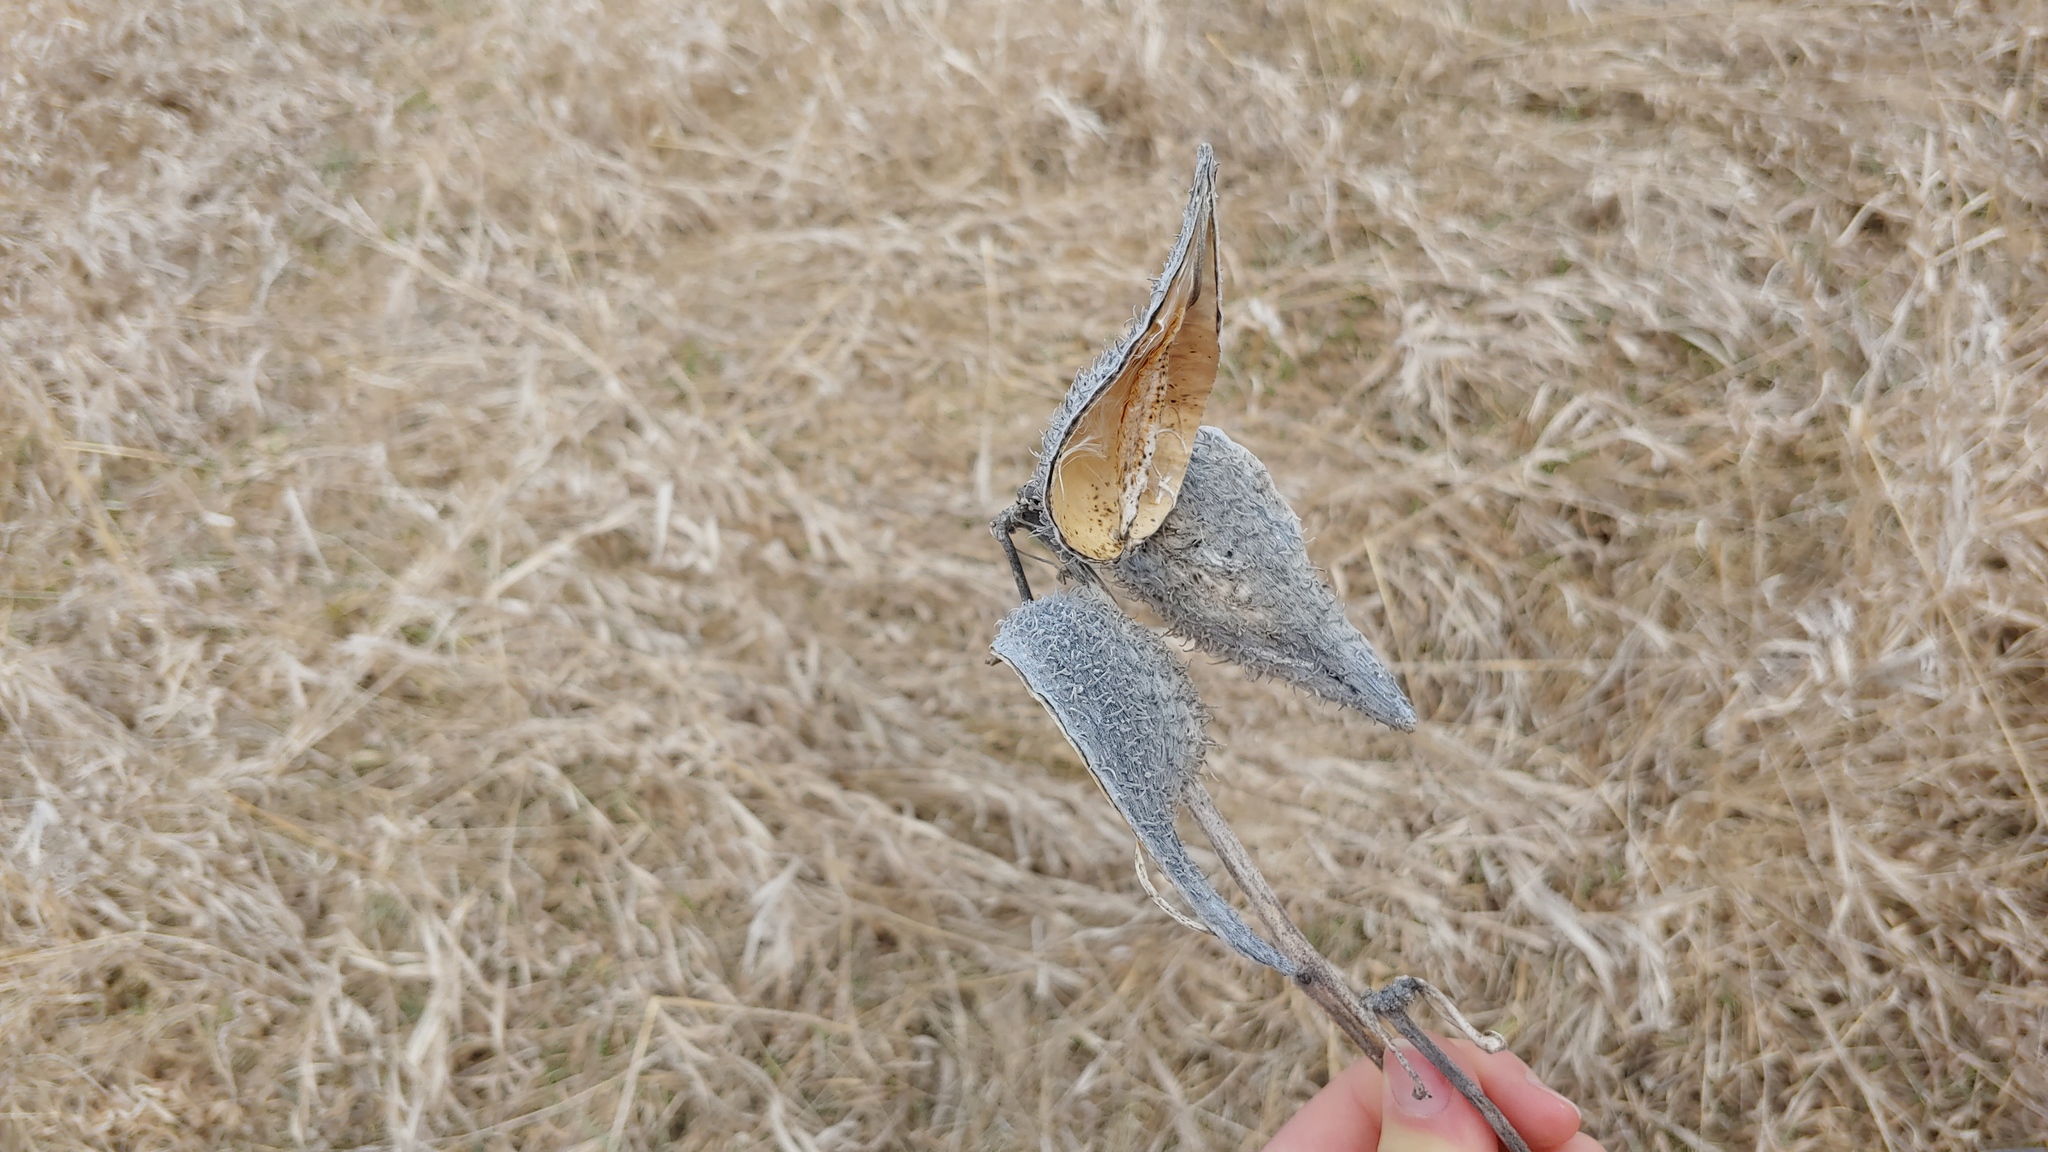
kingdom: Plantae
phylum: Tracheophyta
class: Magnoliopsida
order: Gentianales
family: Apocynaceae
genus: Asclepias
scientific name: Asclepias syriaca
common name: Common milkweed
